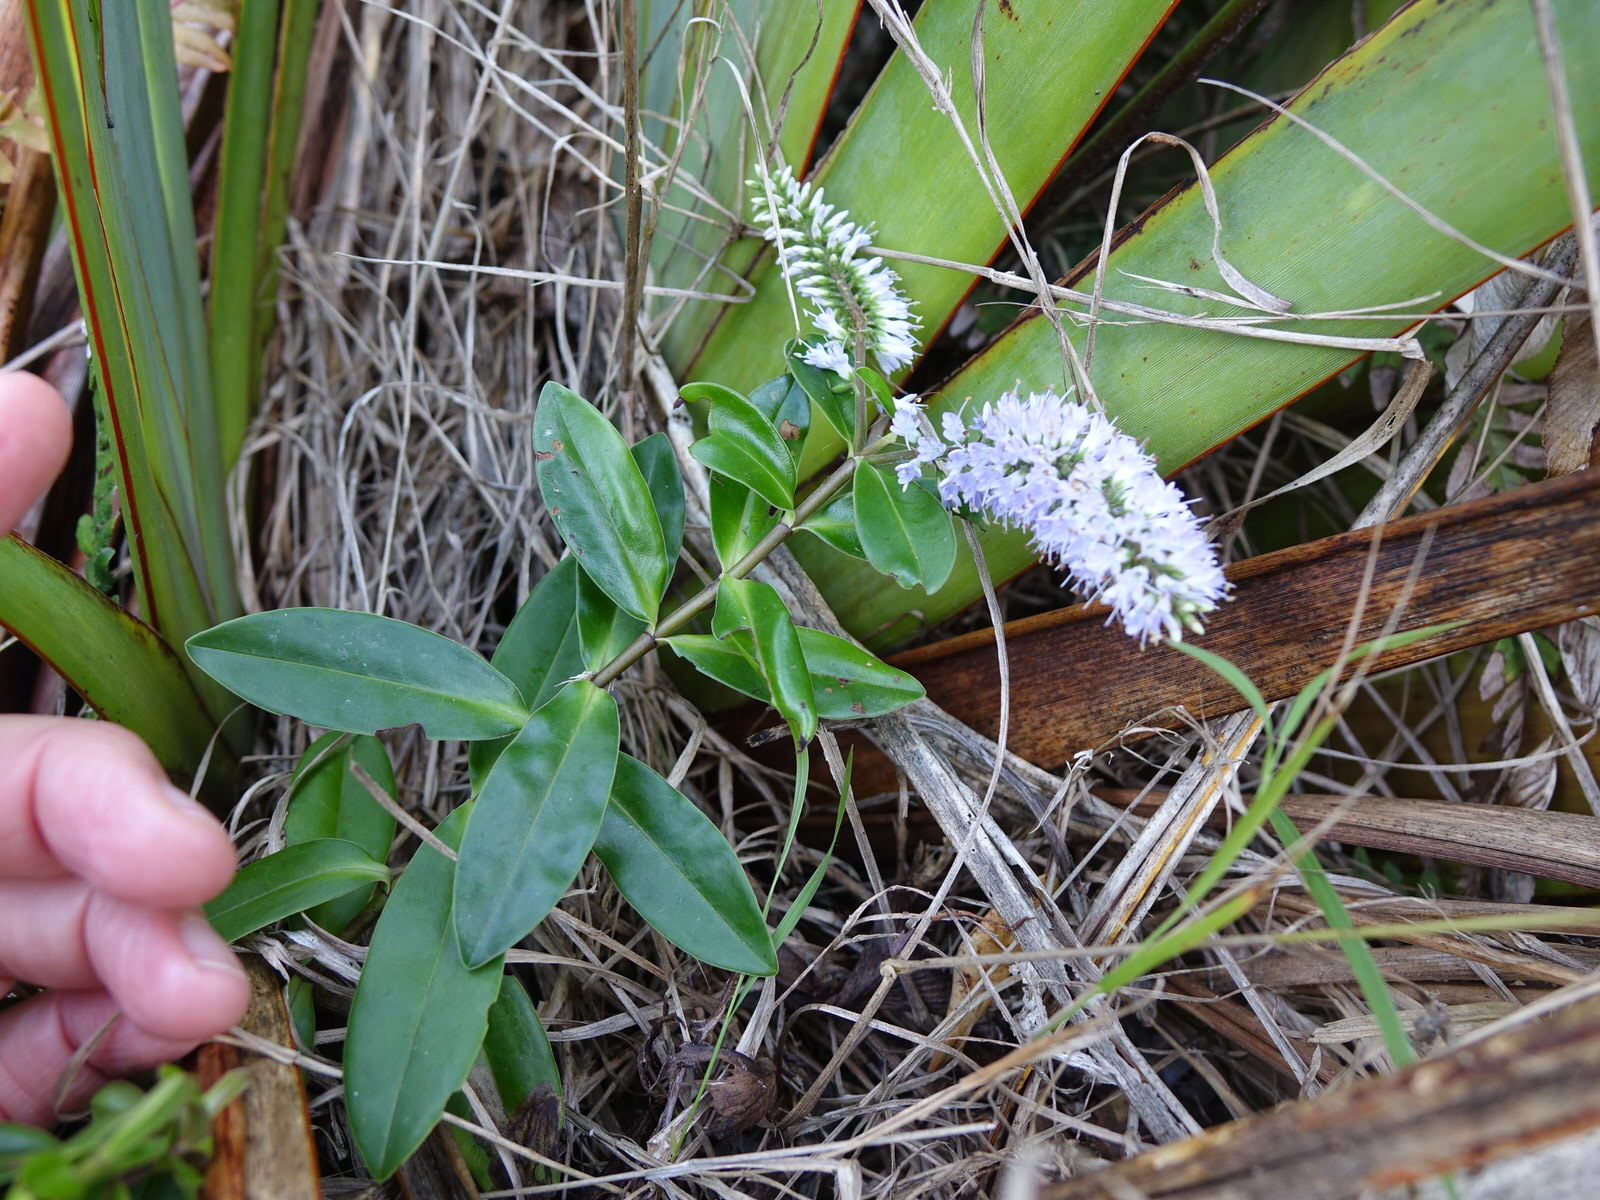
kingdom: Plantae
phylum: Tracheophyta
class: Magnoliopsida
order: Lamiales
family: Plantaginaceae
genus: Veronica
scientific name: Veronica obtusata
